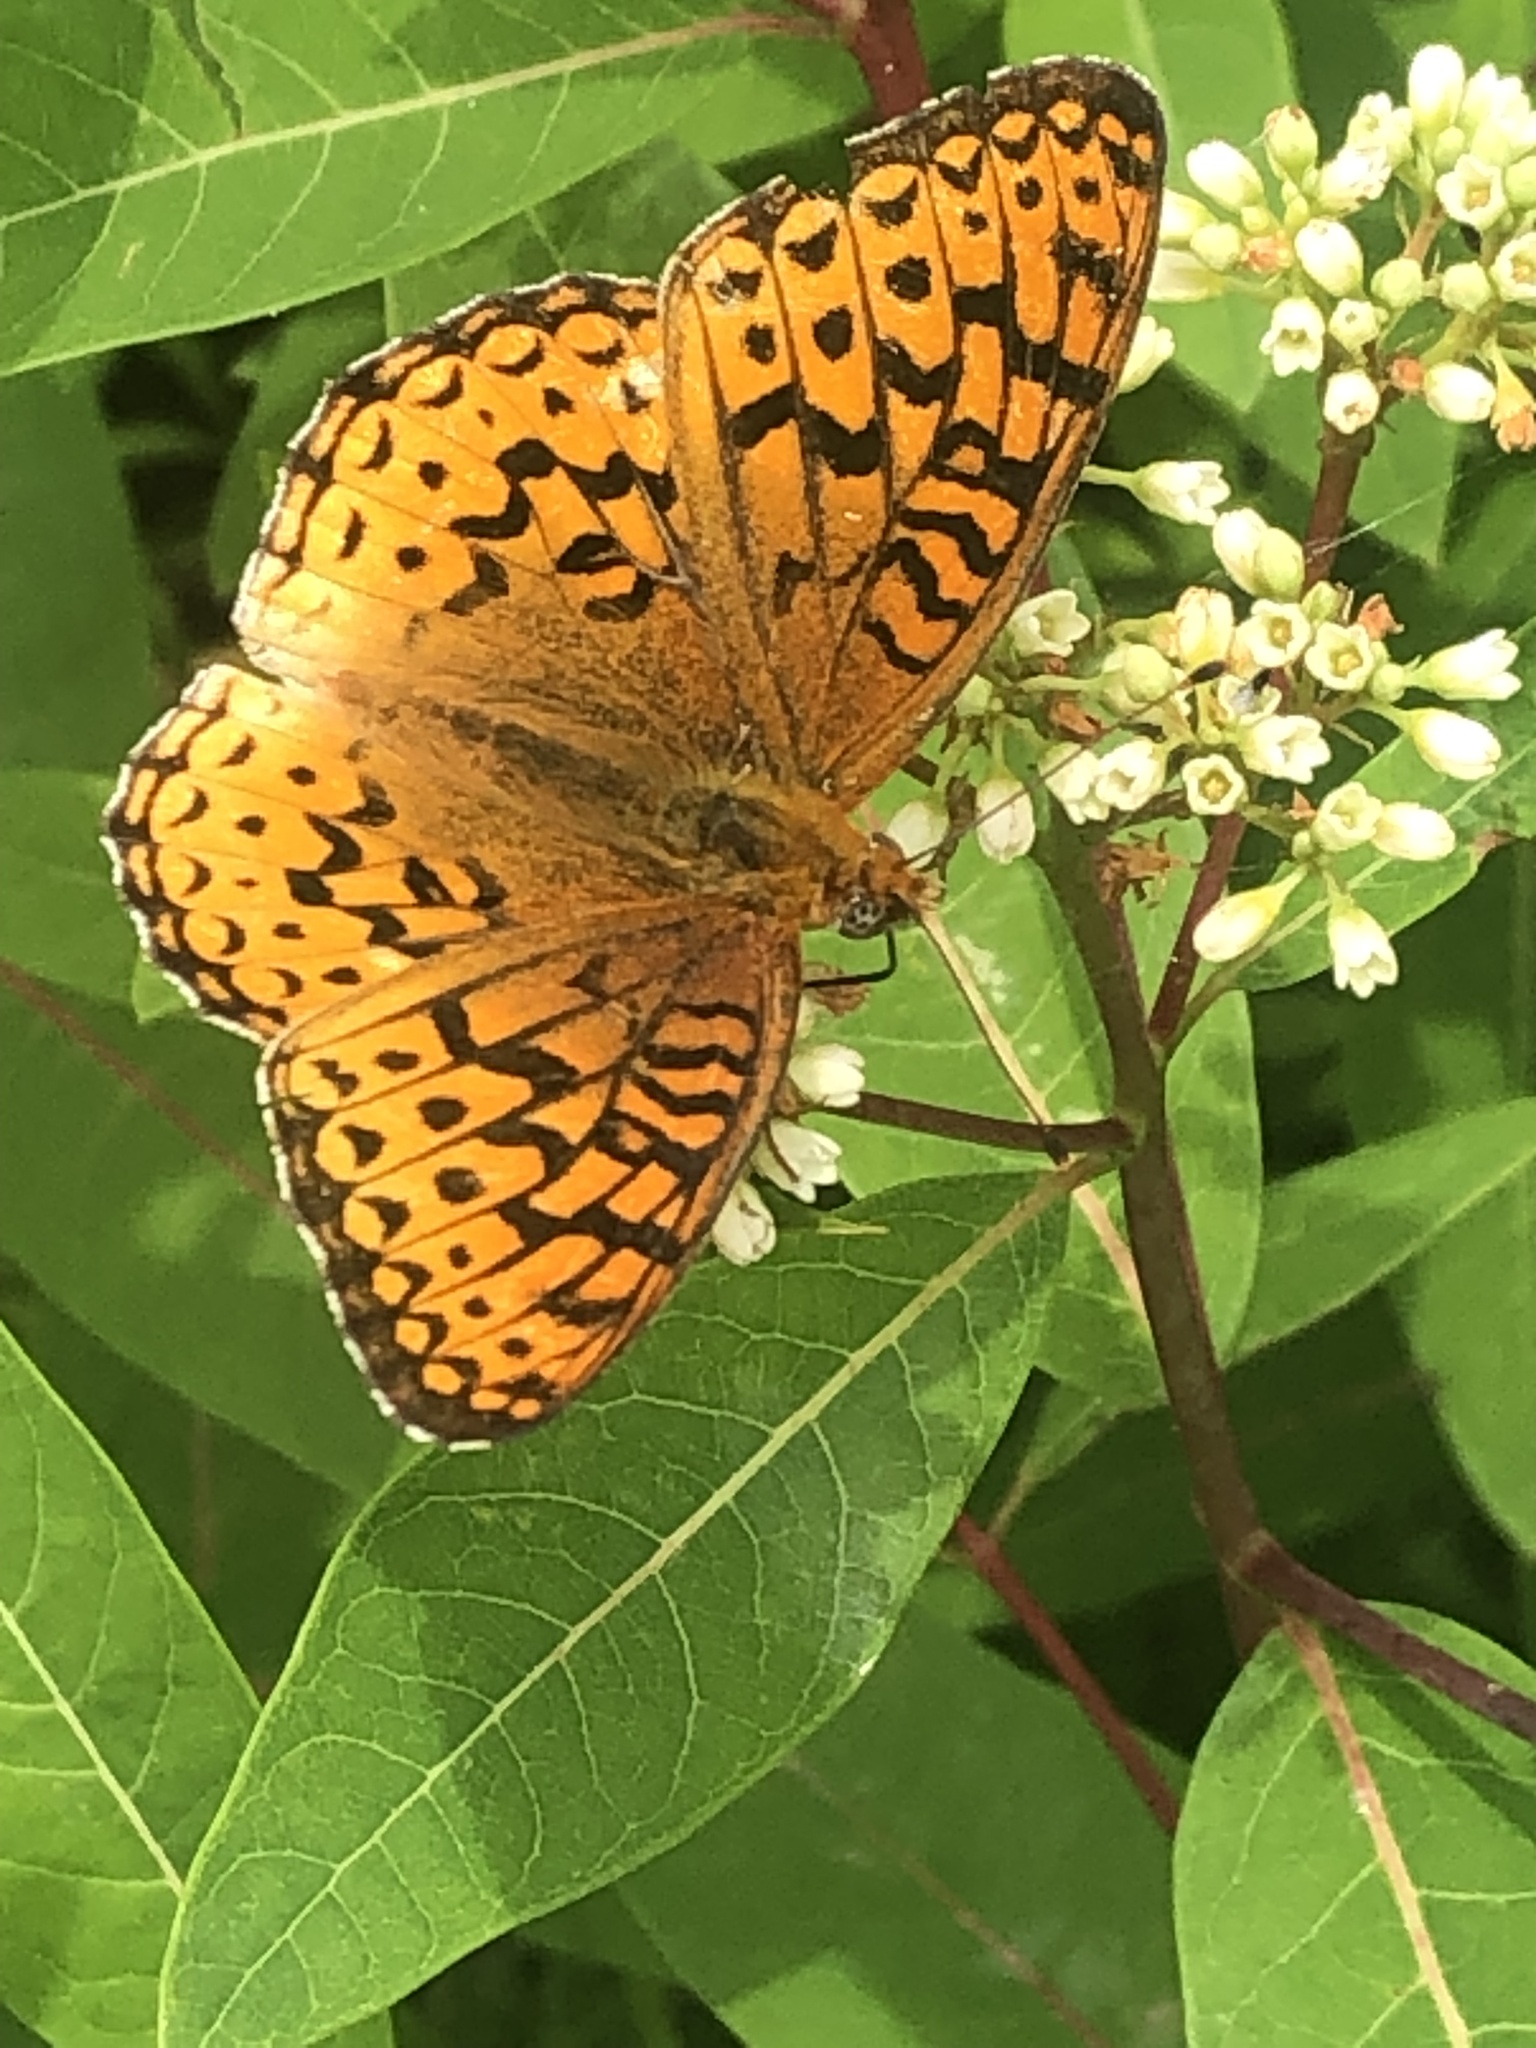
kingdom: Animalia
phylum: Arthropoda
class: Insecta
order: Lepidoptera
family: Nymphalidae
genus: Speyeria
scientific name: Speyeria atlantis
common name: Atlantis fritillary
